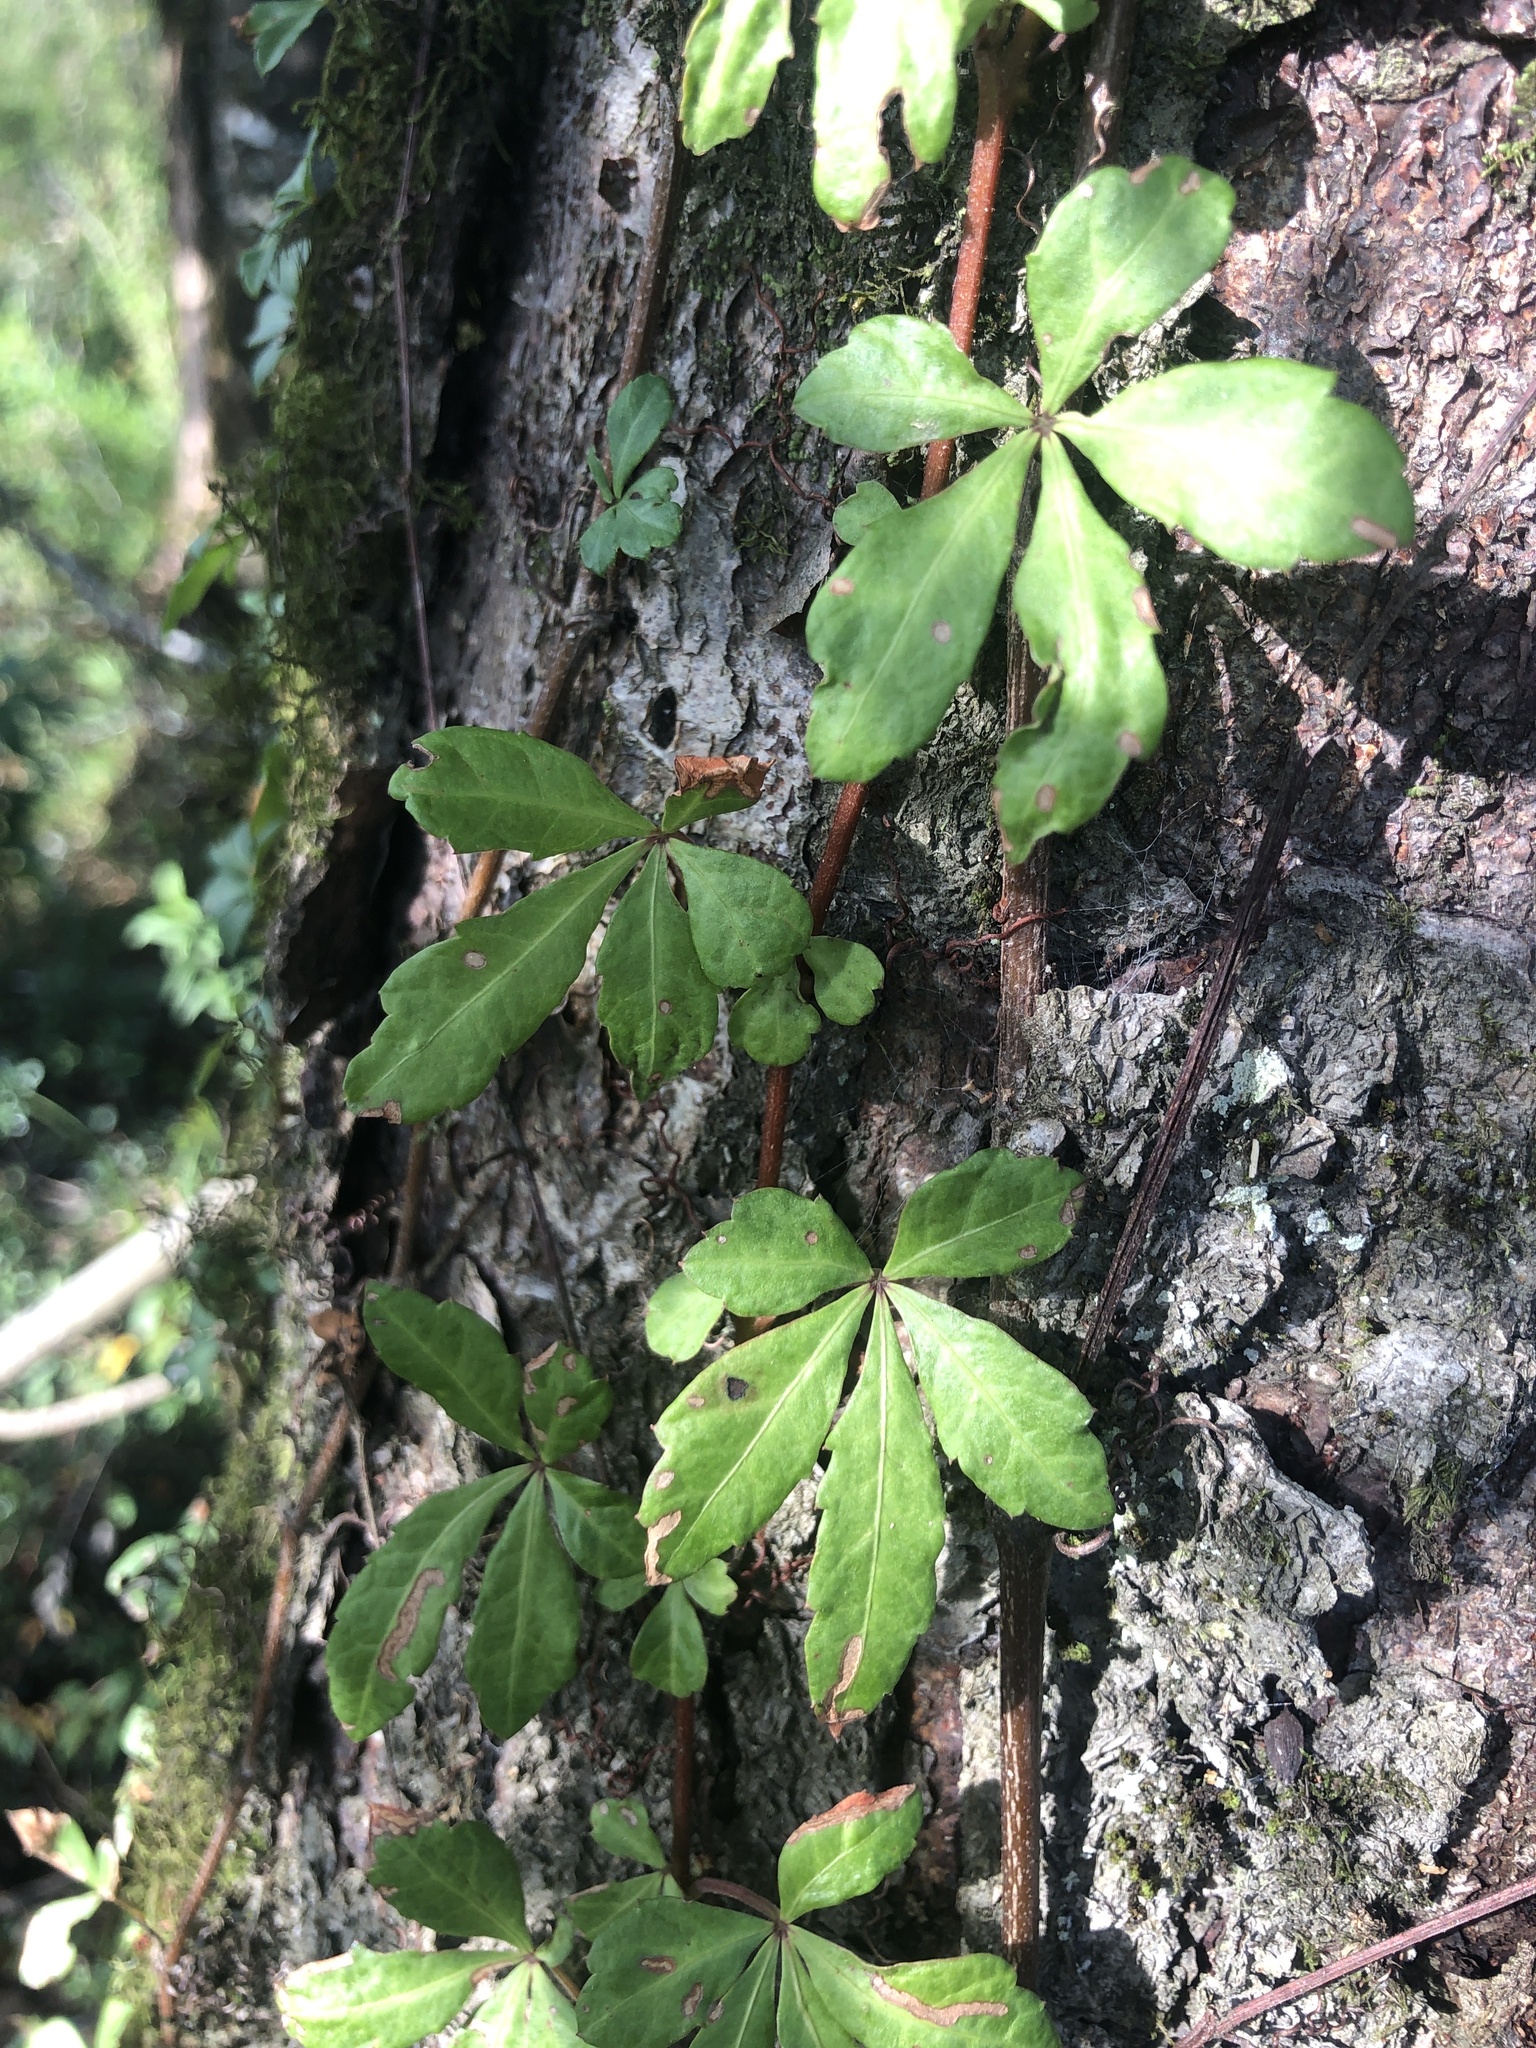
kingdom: Plantae
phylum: Tracheophyta
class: Magnoliopsida
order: Vitales
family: Vitaceae
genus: Clematicissus
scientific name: Clematicissus striata
